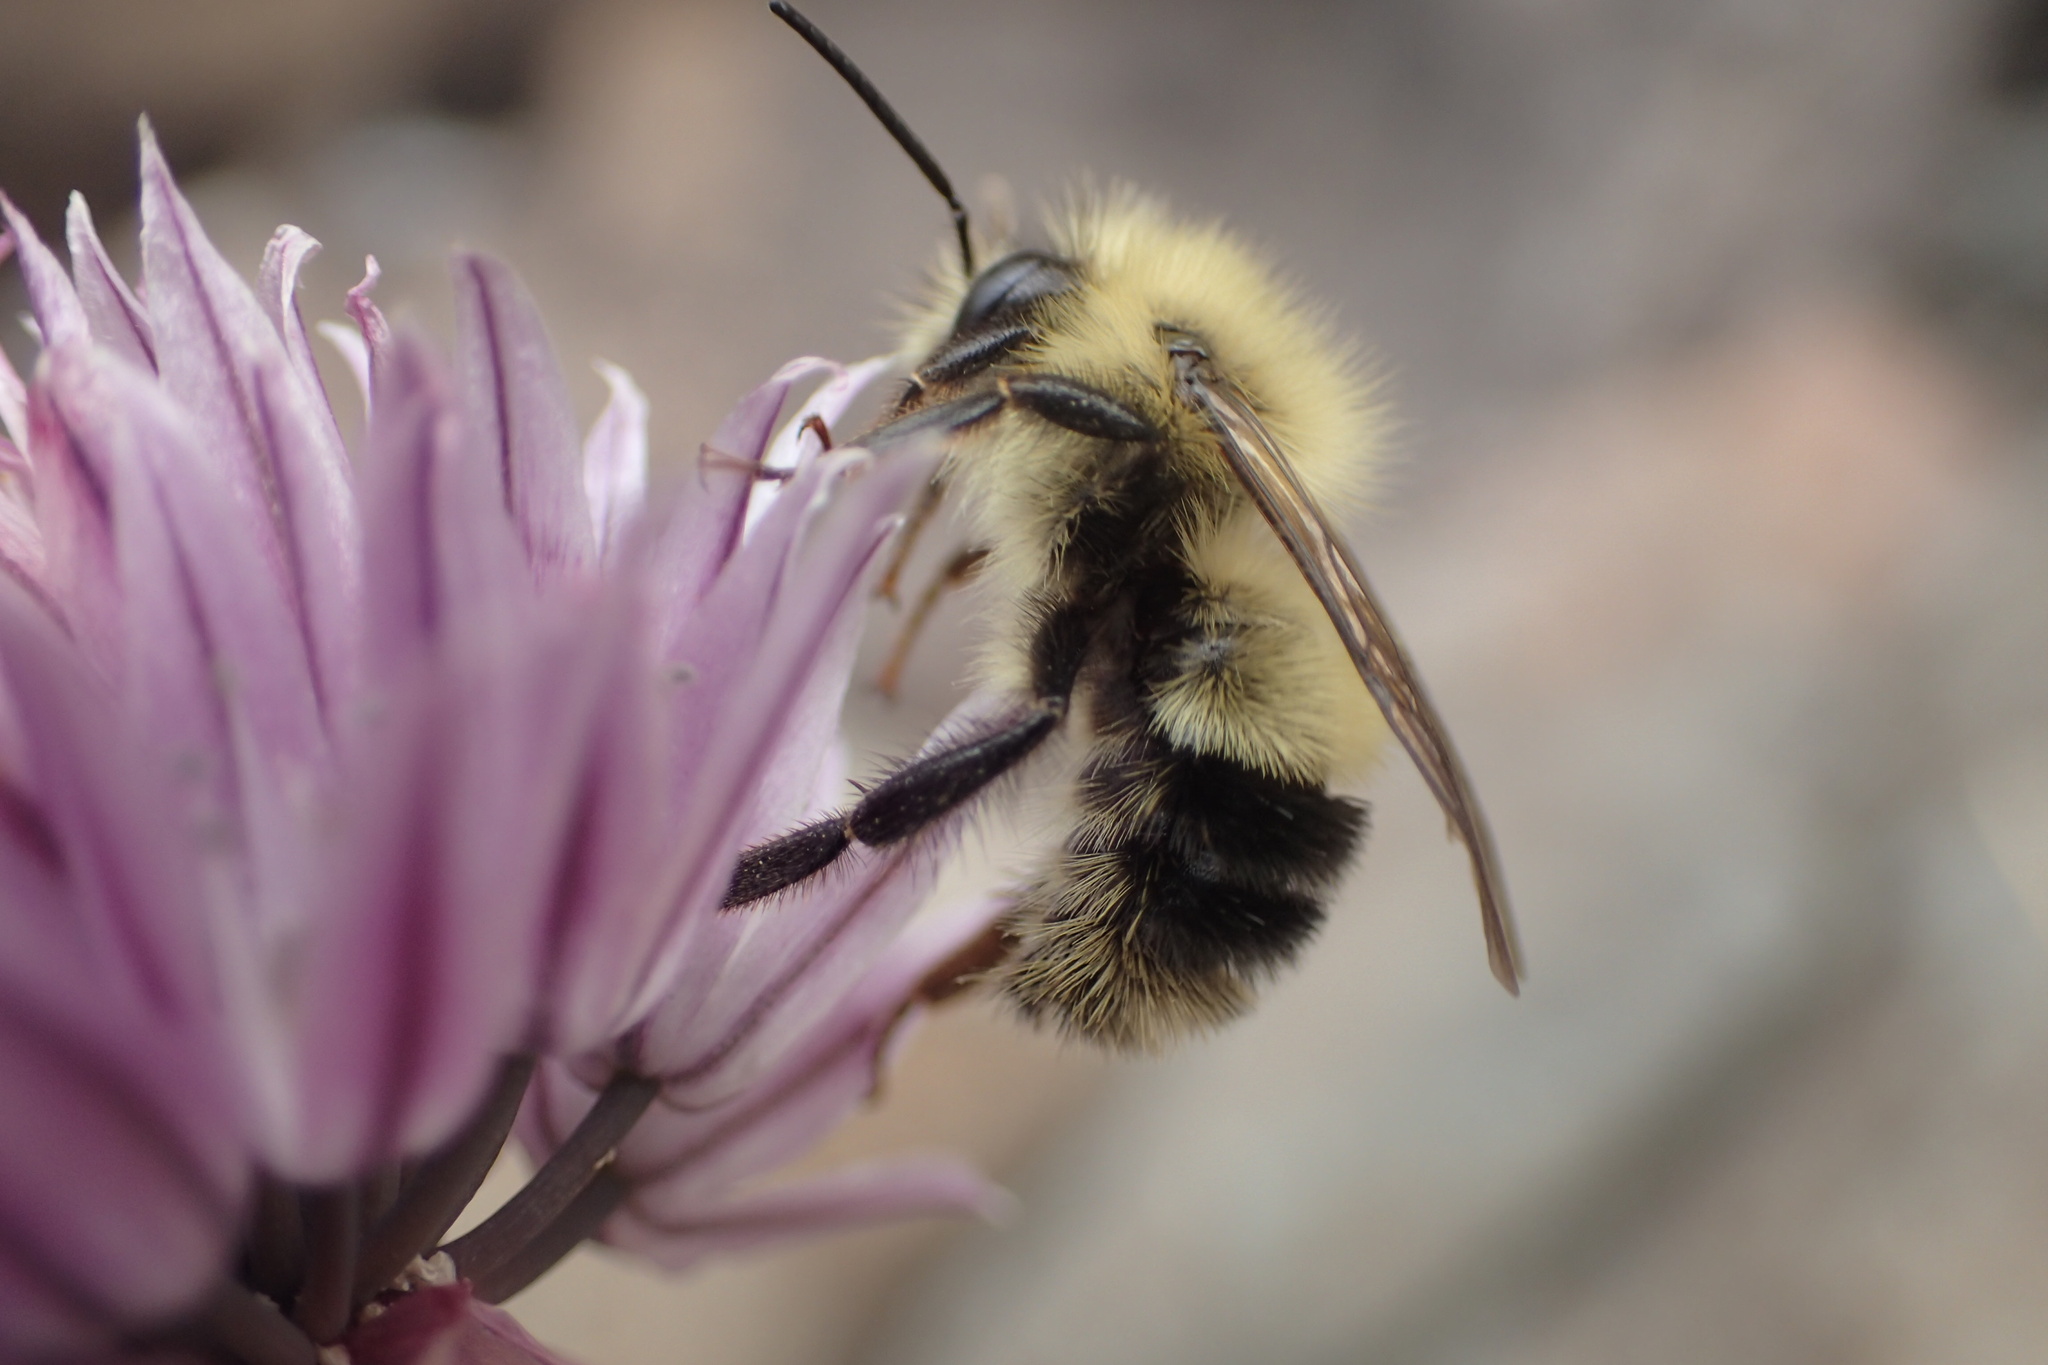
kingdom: Animalia
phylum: Arthropoda
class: Insecta
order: Hymenoptera
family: Apidae
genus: Pyrobombus
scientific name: Pyrobombus
